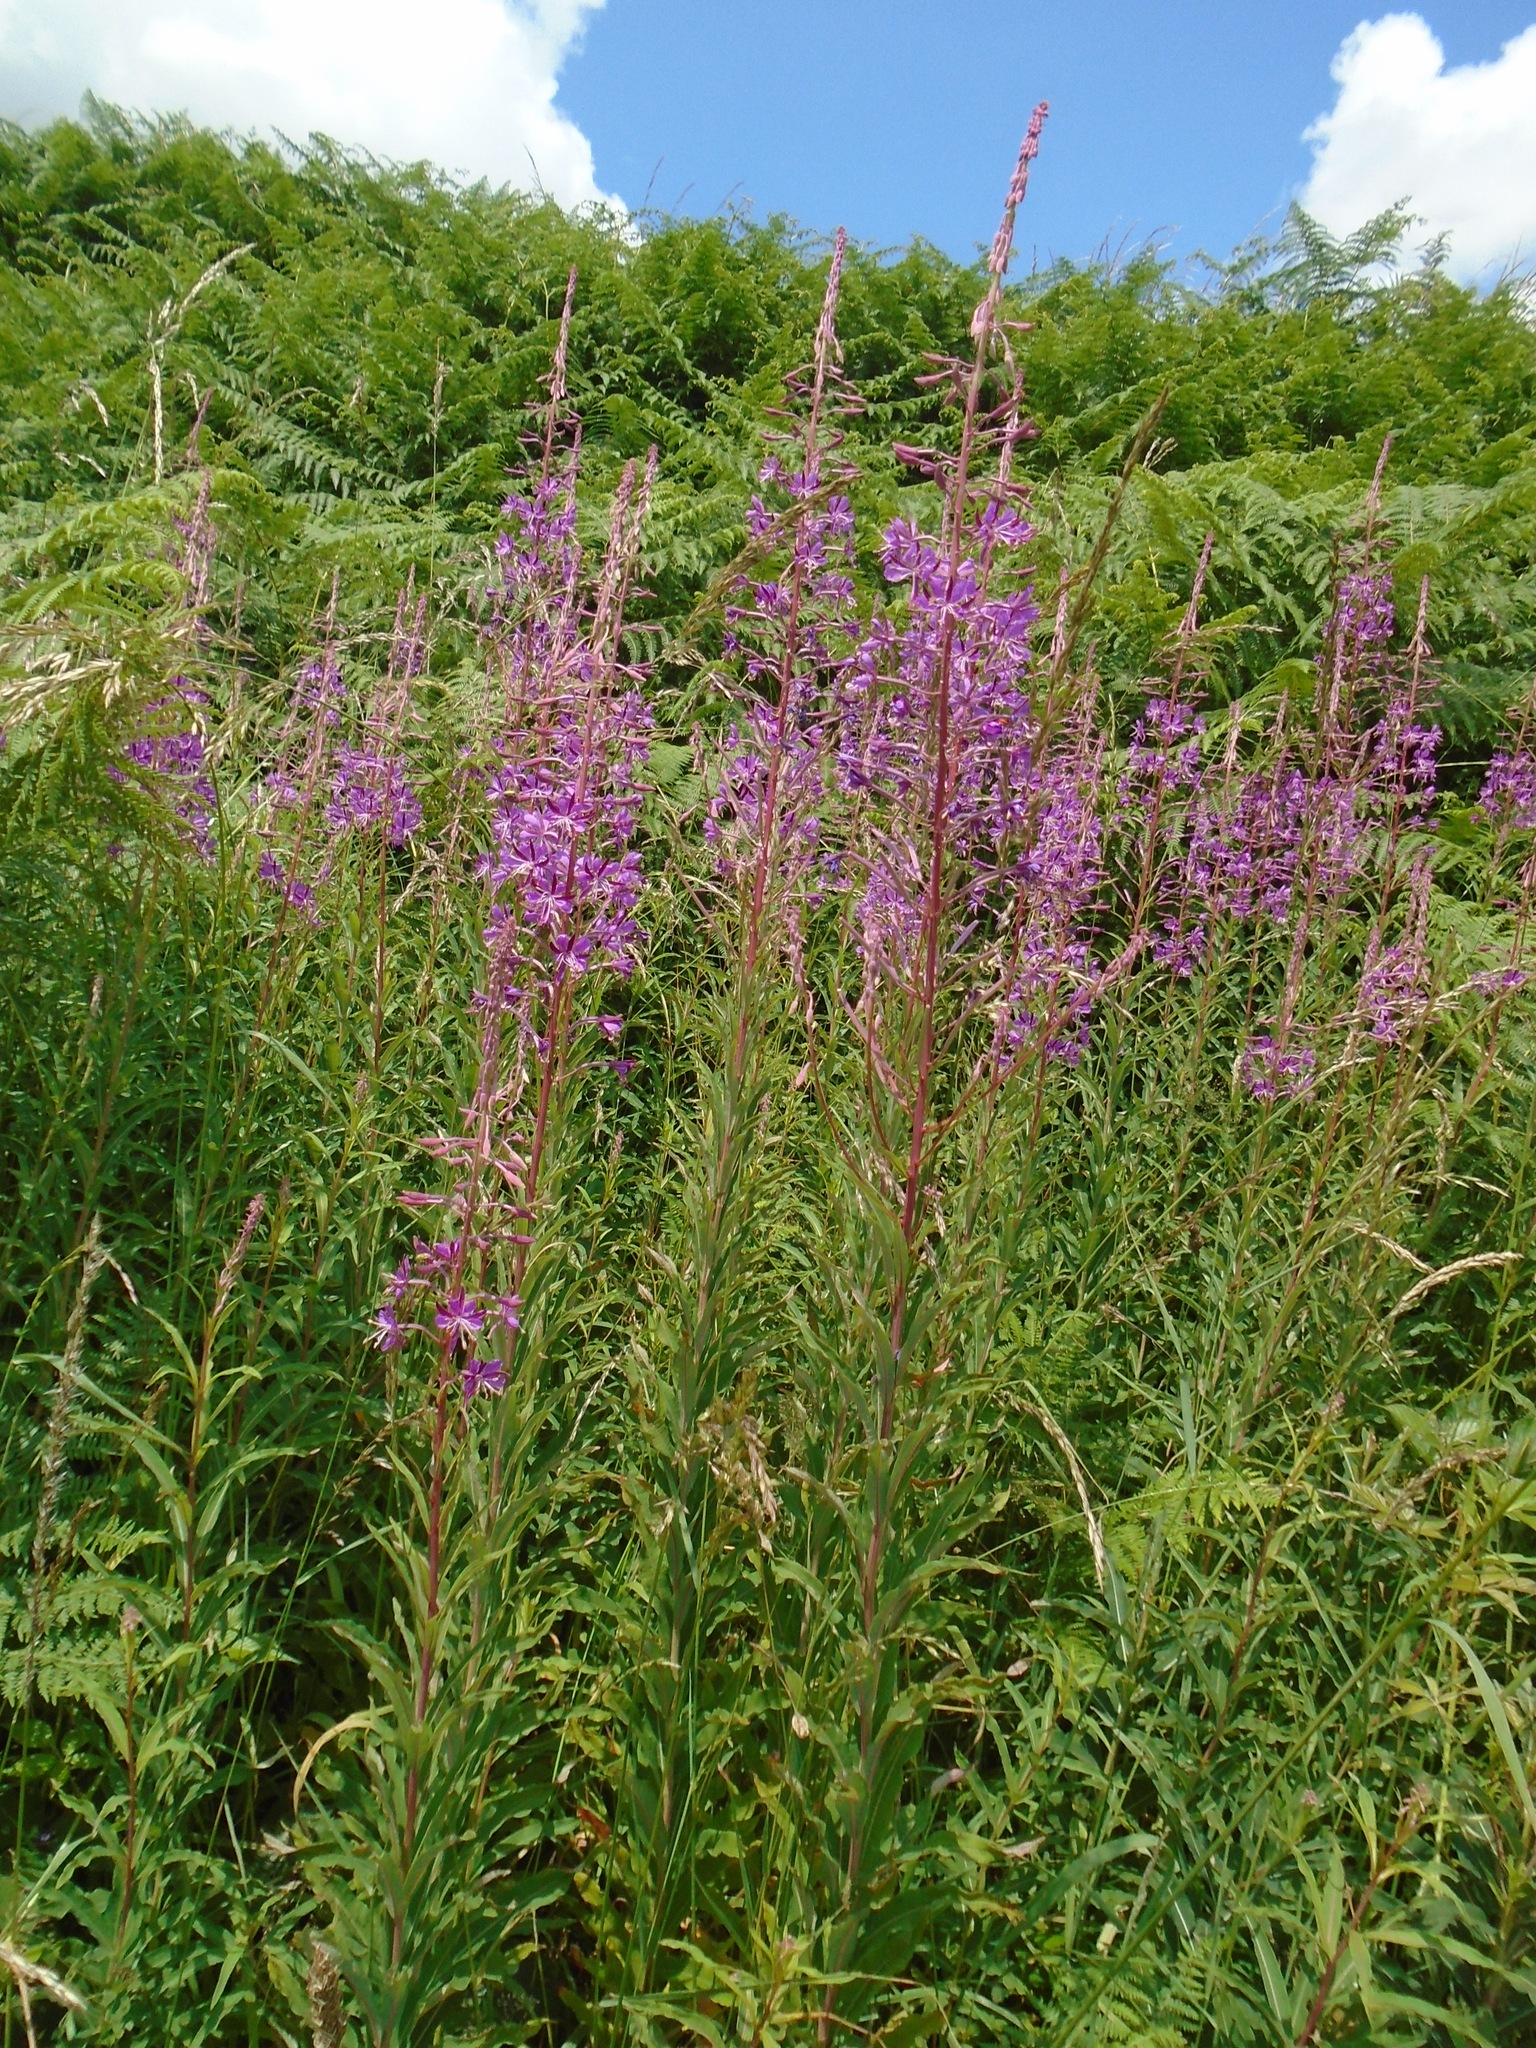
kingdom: Plantae
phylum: Tracheophyta
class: Magnoliopsida
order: Myrtales
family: Onagraceae
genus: Chamaenerion
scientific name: Chamaenerion angustifolium
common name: Fireweed
